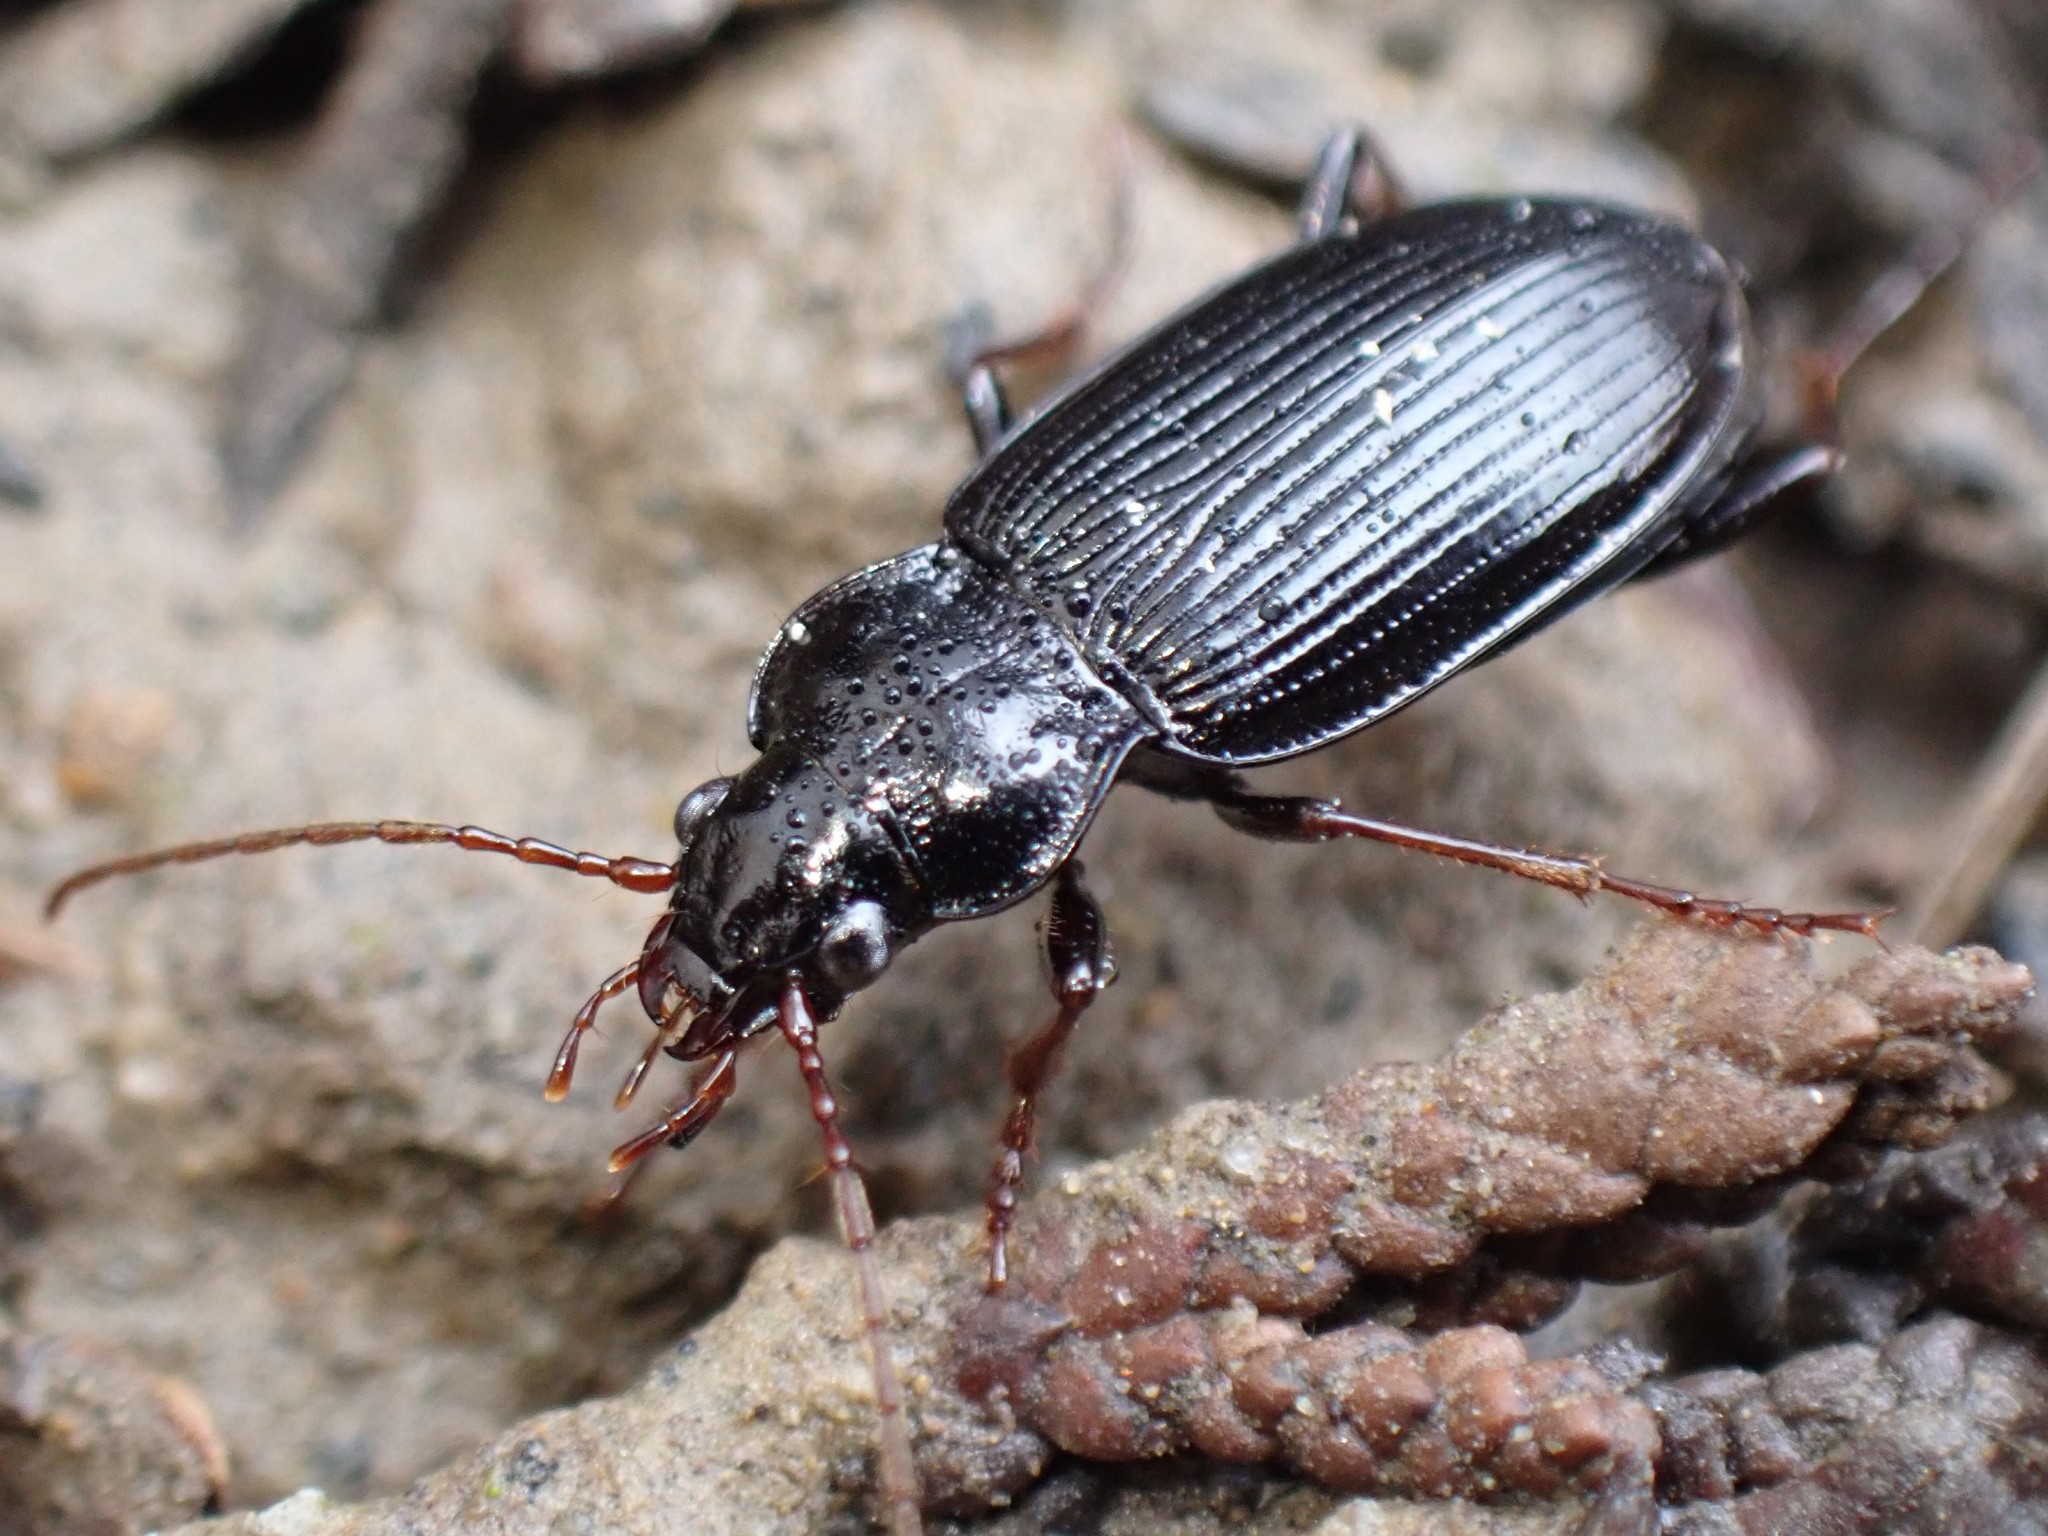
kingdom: Animalia
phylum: Arthropoda
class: Insecta
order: Coleoptera
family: Carabidae
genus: Nebria
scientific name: Nebria brevicollis
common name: Short-necked gazelle beetle
